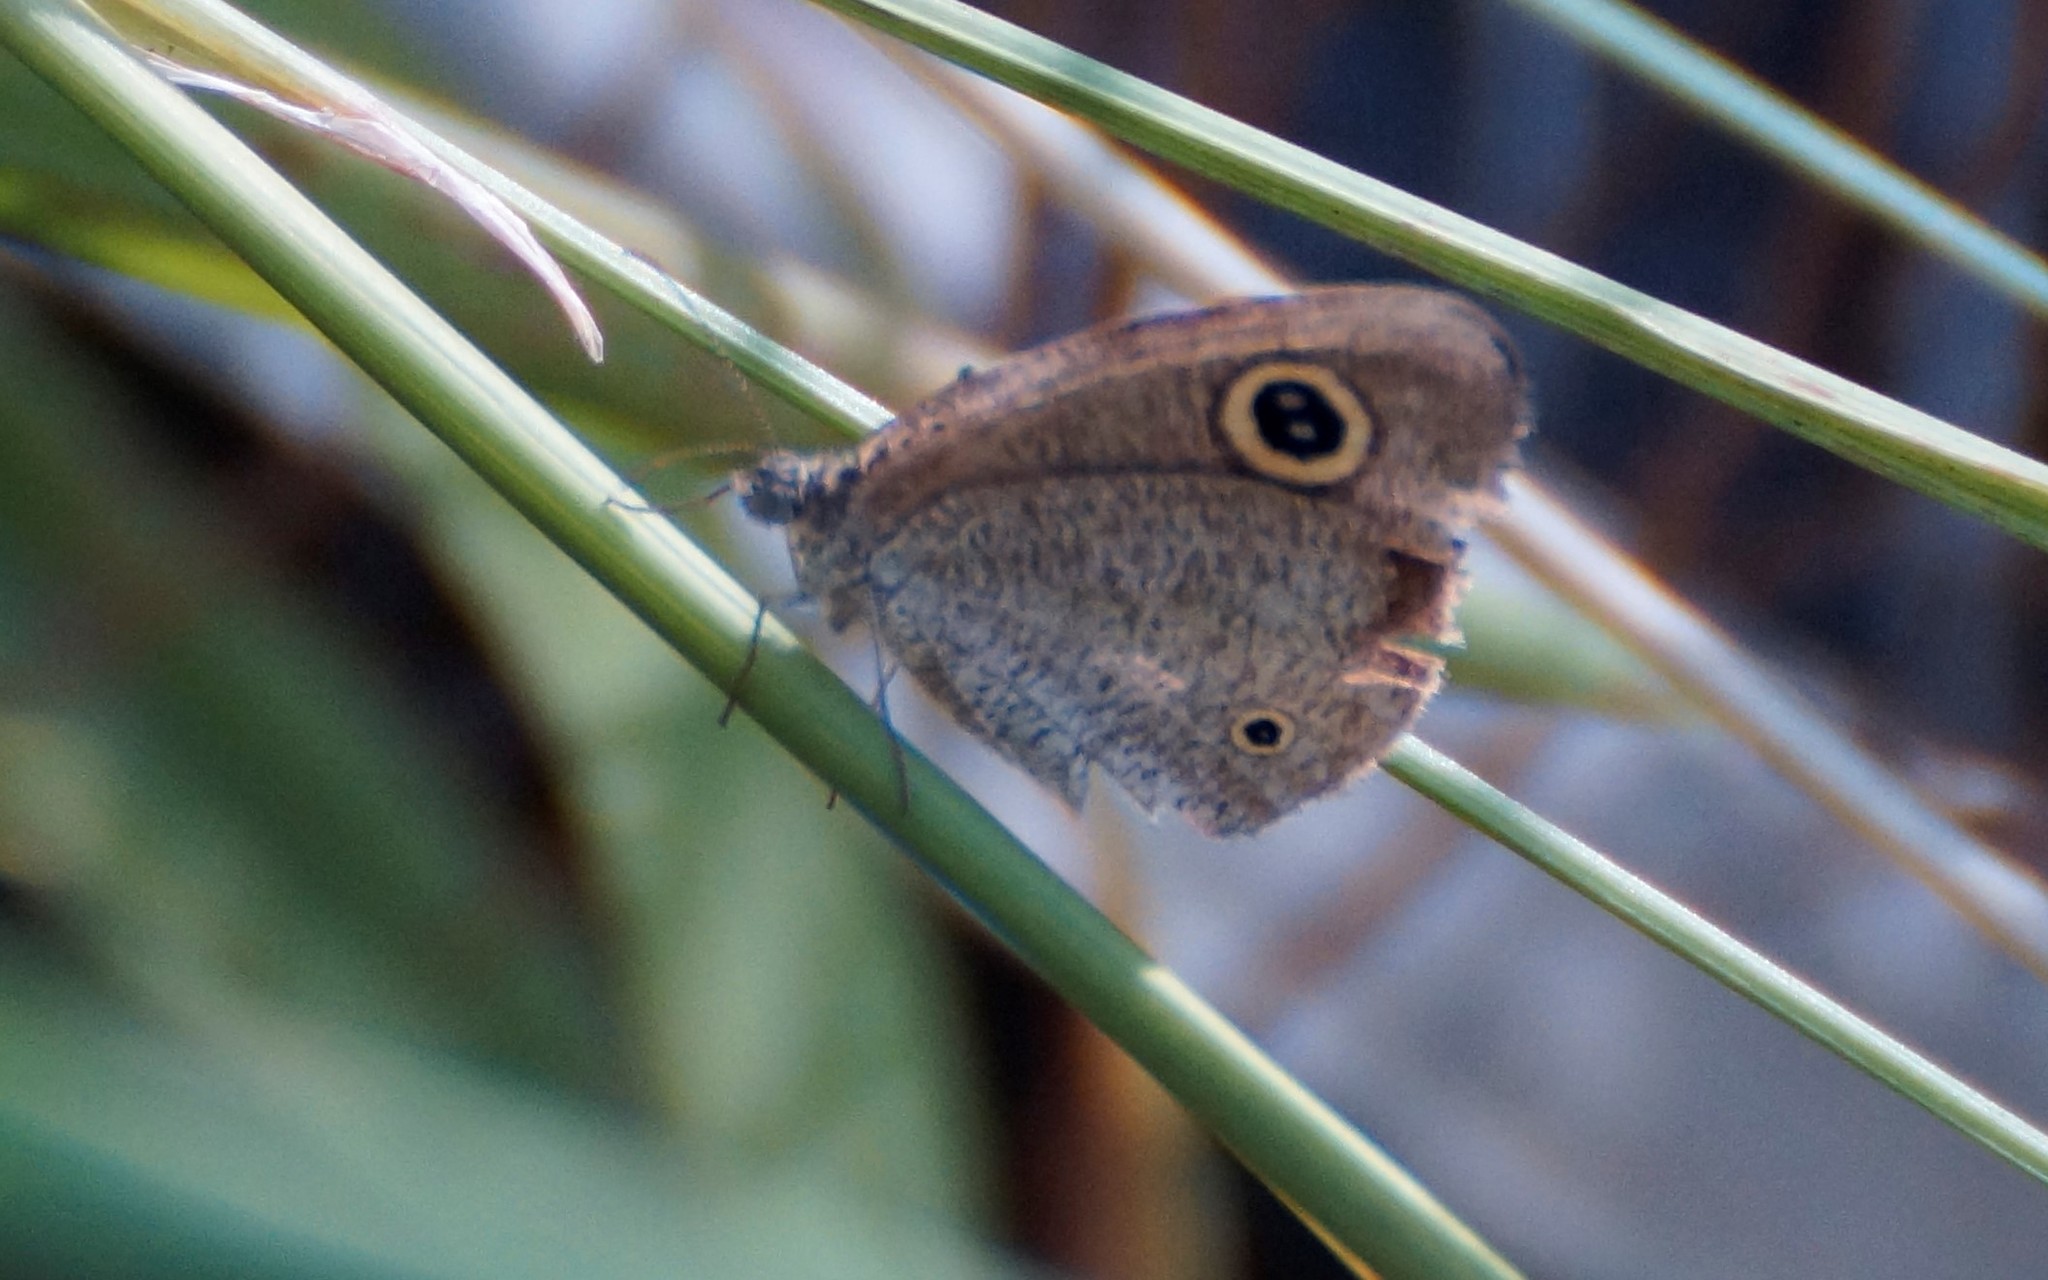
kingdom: Animalia
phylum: Arthropoda
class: Insecta
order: Lepidoptera
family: Nymphalidae
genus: Ypthima
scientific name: Ypthima arctous
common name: Dusky knight
